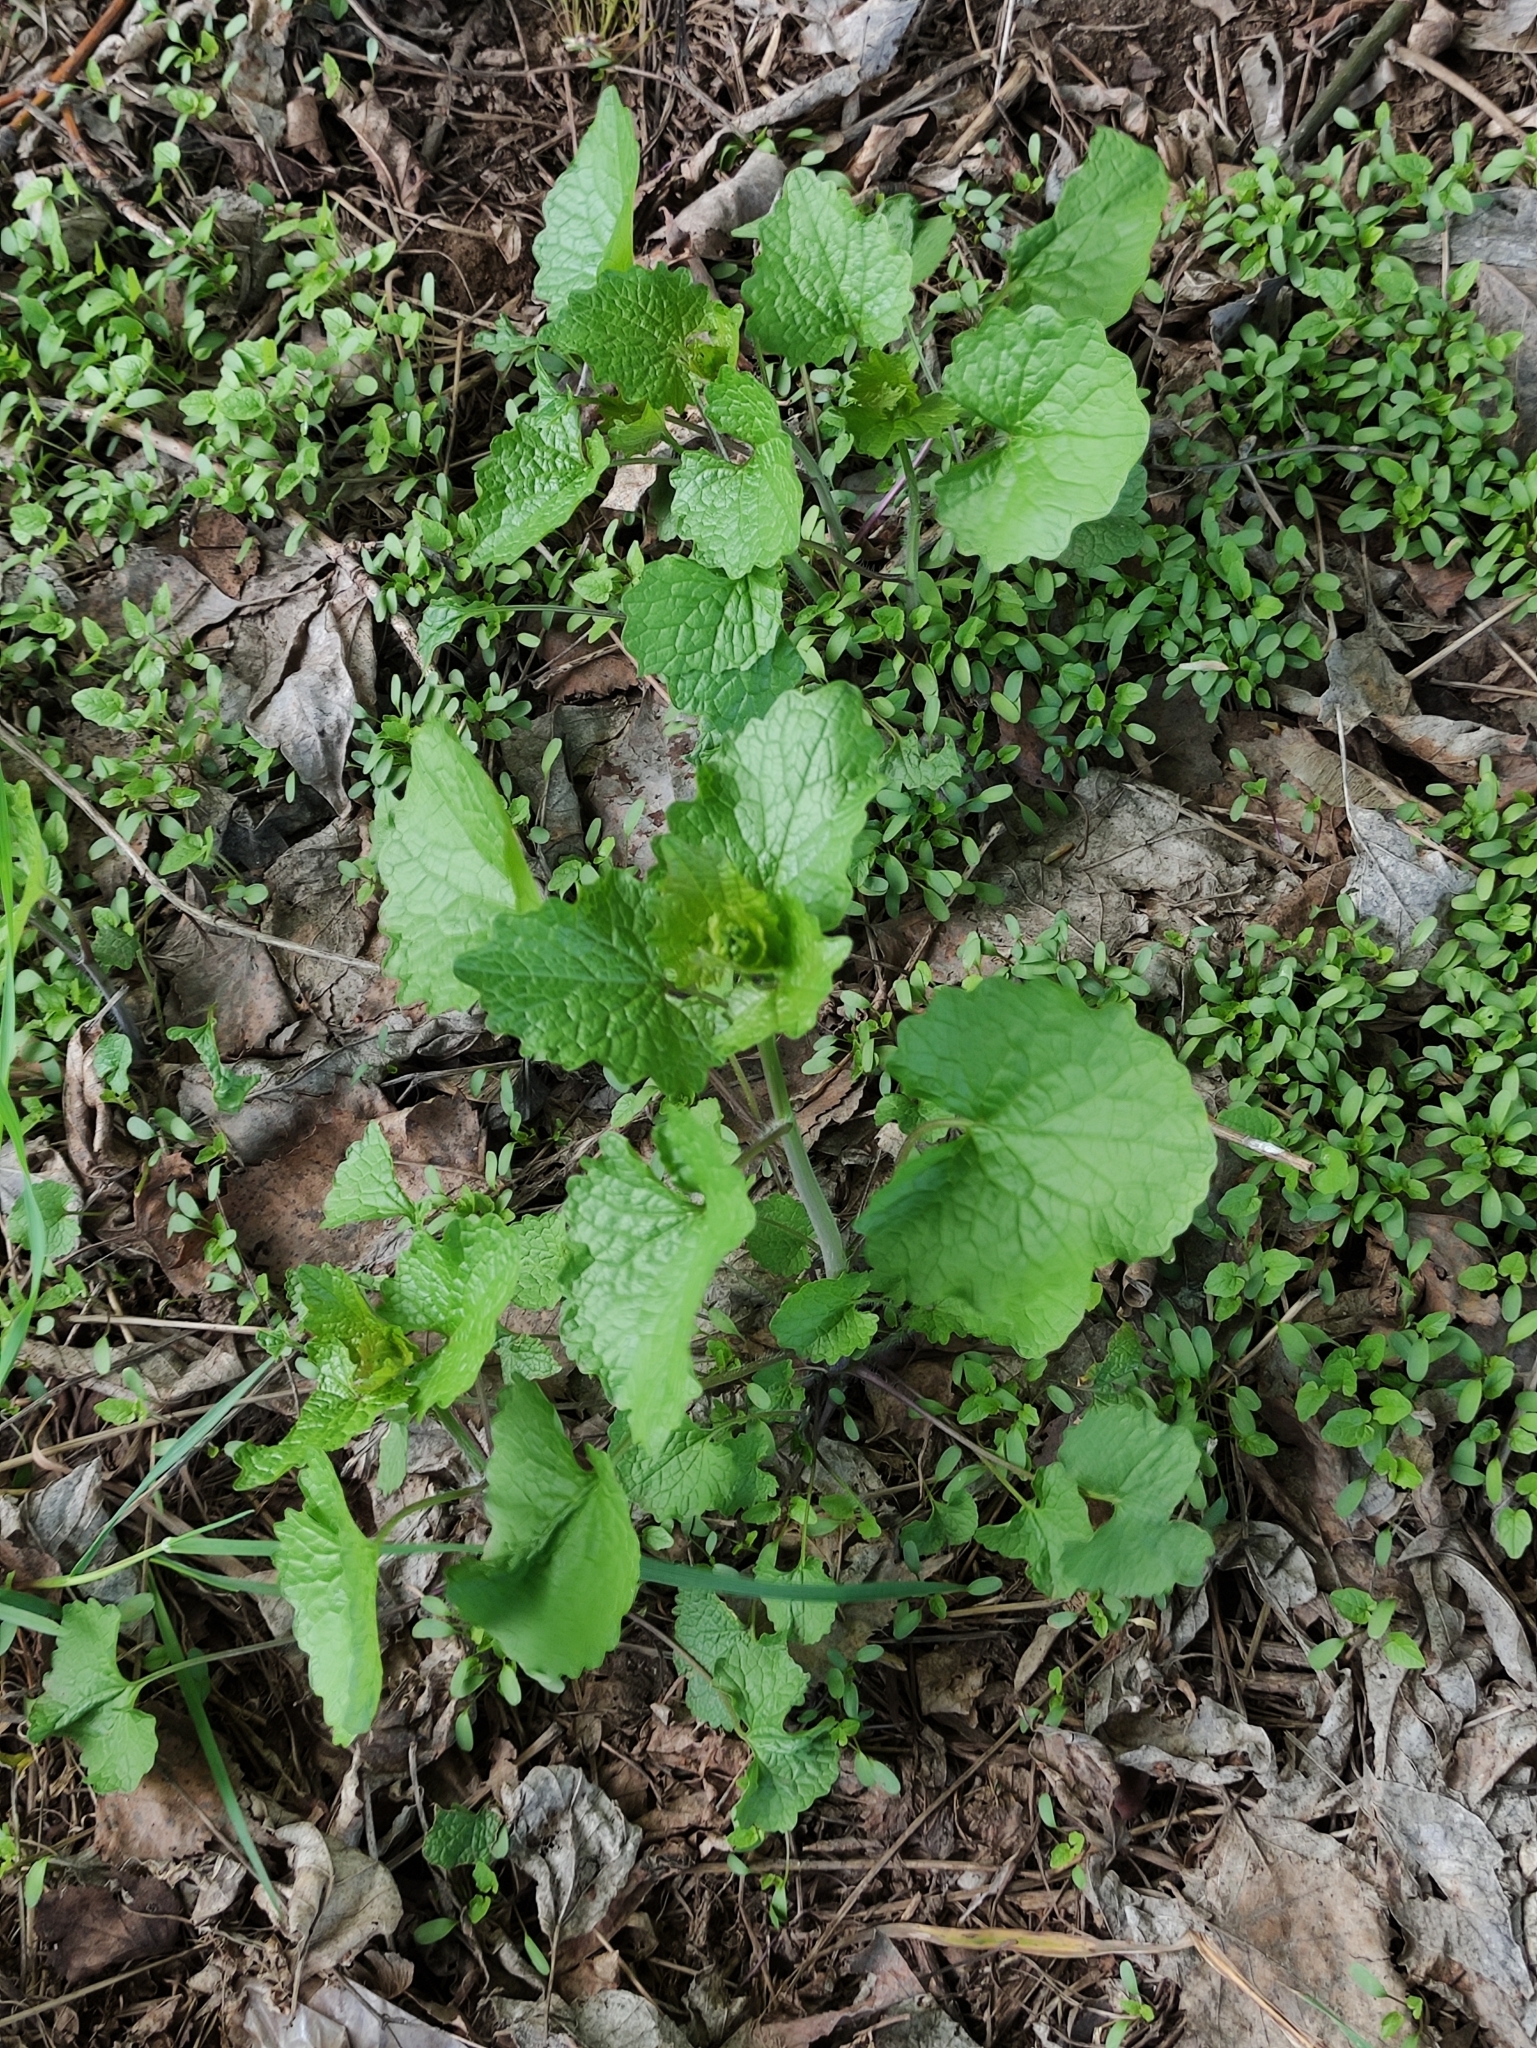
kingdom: Plantae
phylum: Tracheophyta
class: Magnoliopsida
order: Brassicales
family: Brassicaceae
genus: Alliaria
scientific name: Alliaria petiolata
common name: Garlic mustard
